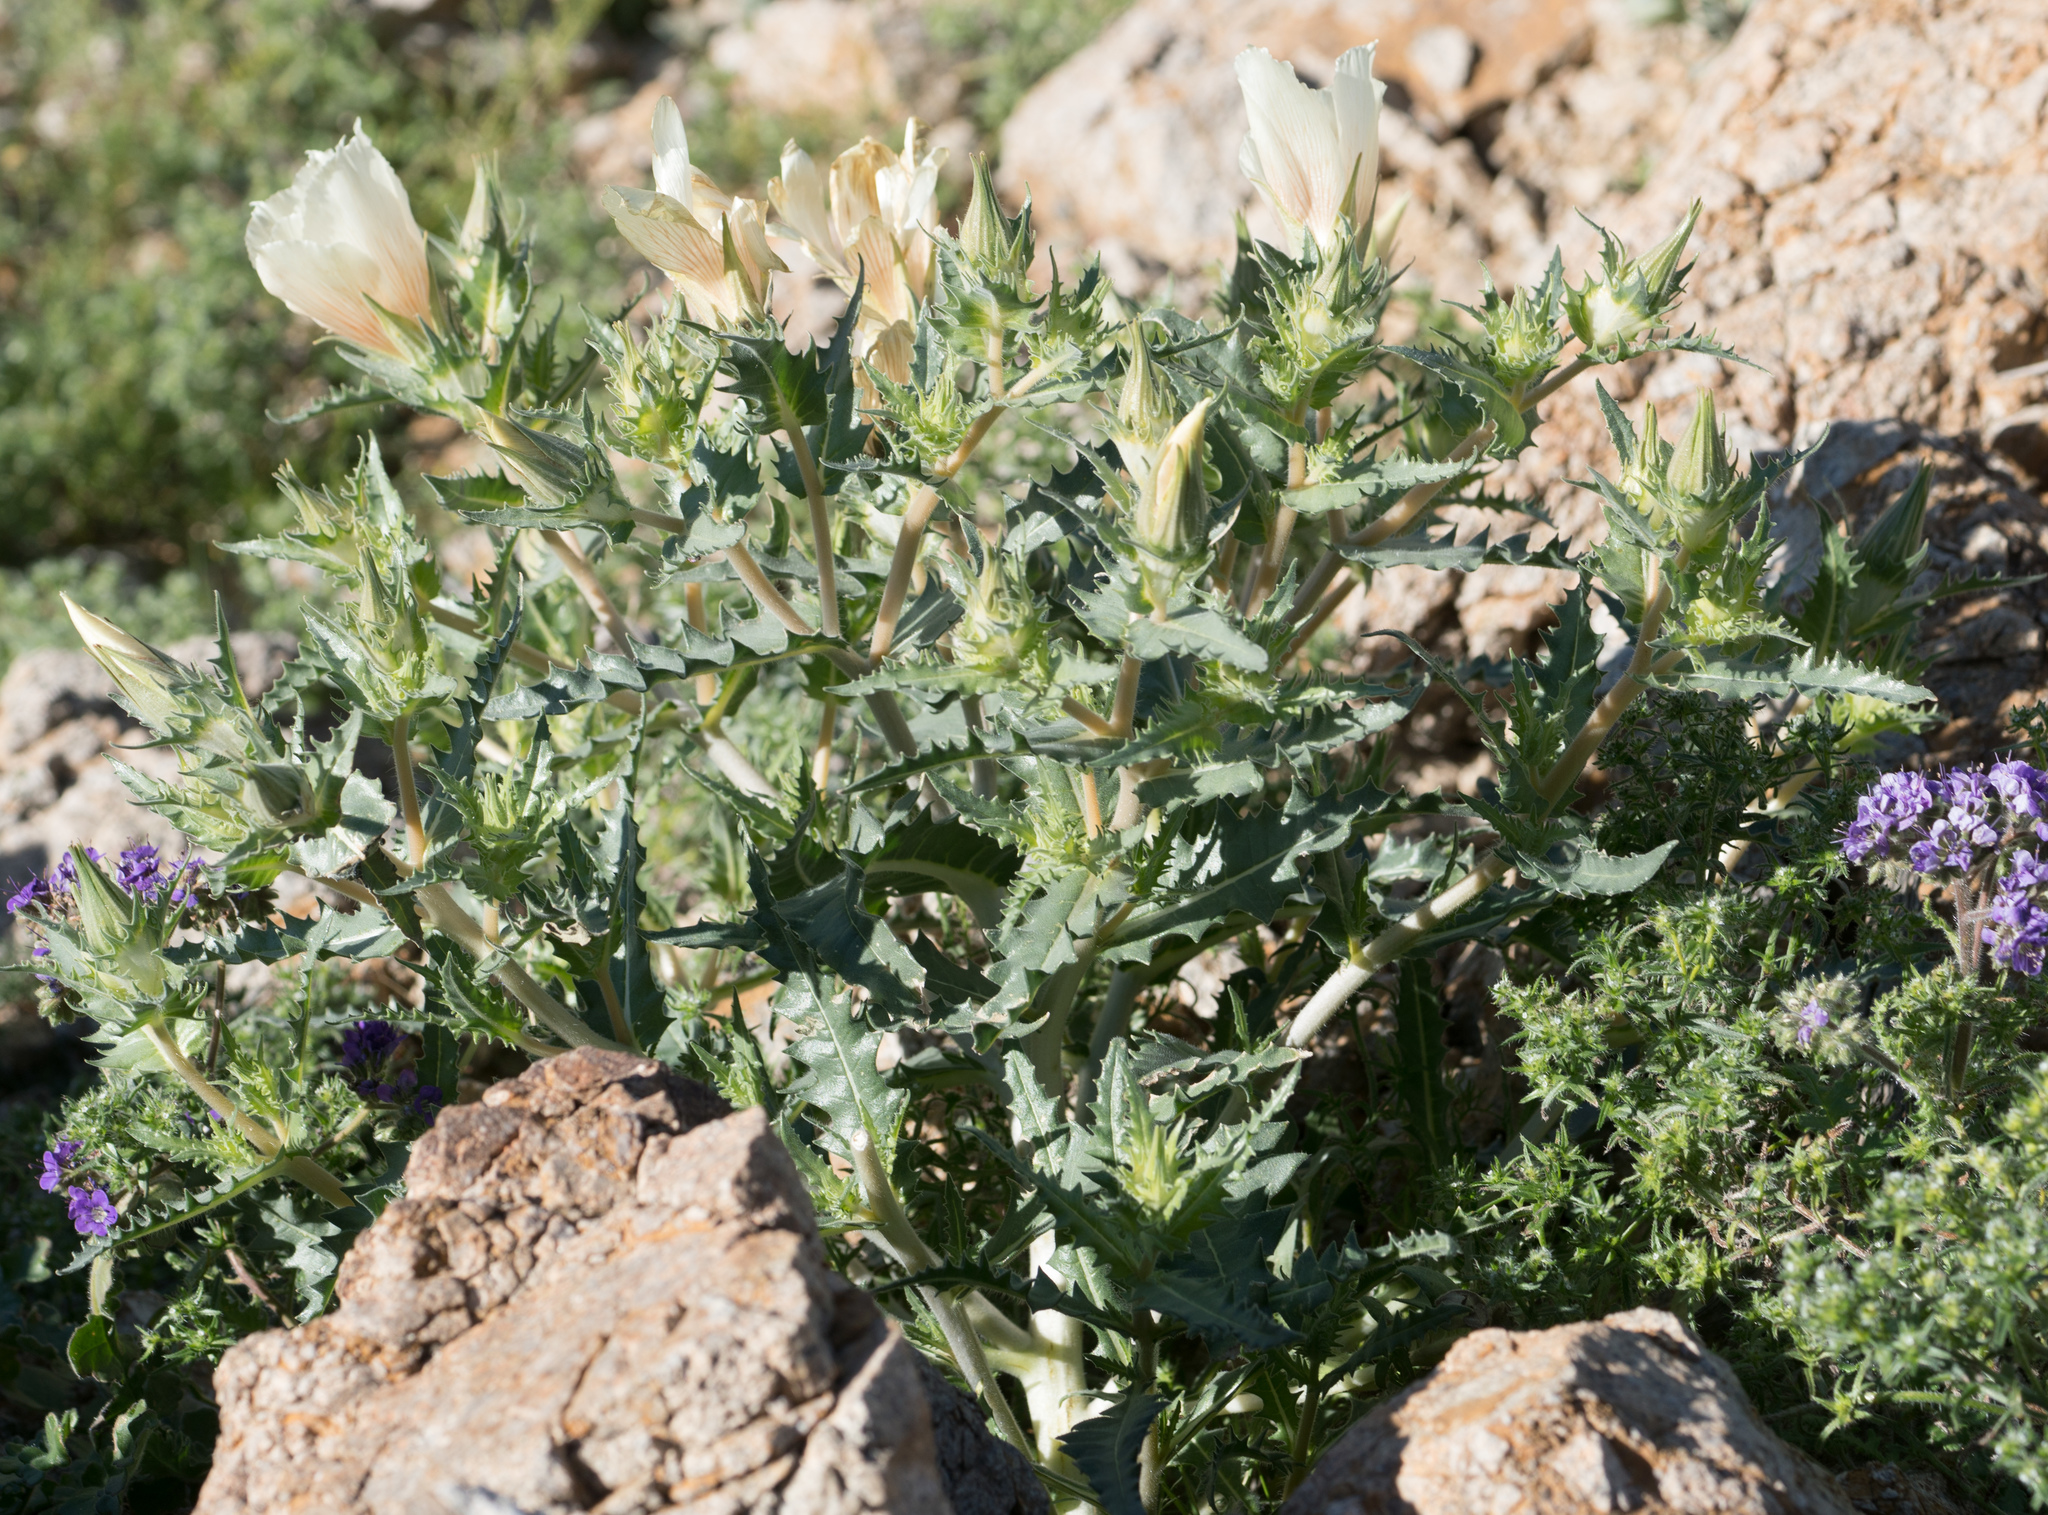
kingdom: Plantae
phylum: Tracheophyta
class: Magnoliopsida
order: Cornales
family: Loasaceae
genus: Mentzelia
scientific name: Mentzelia involucrata
